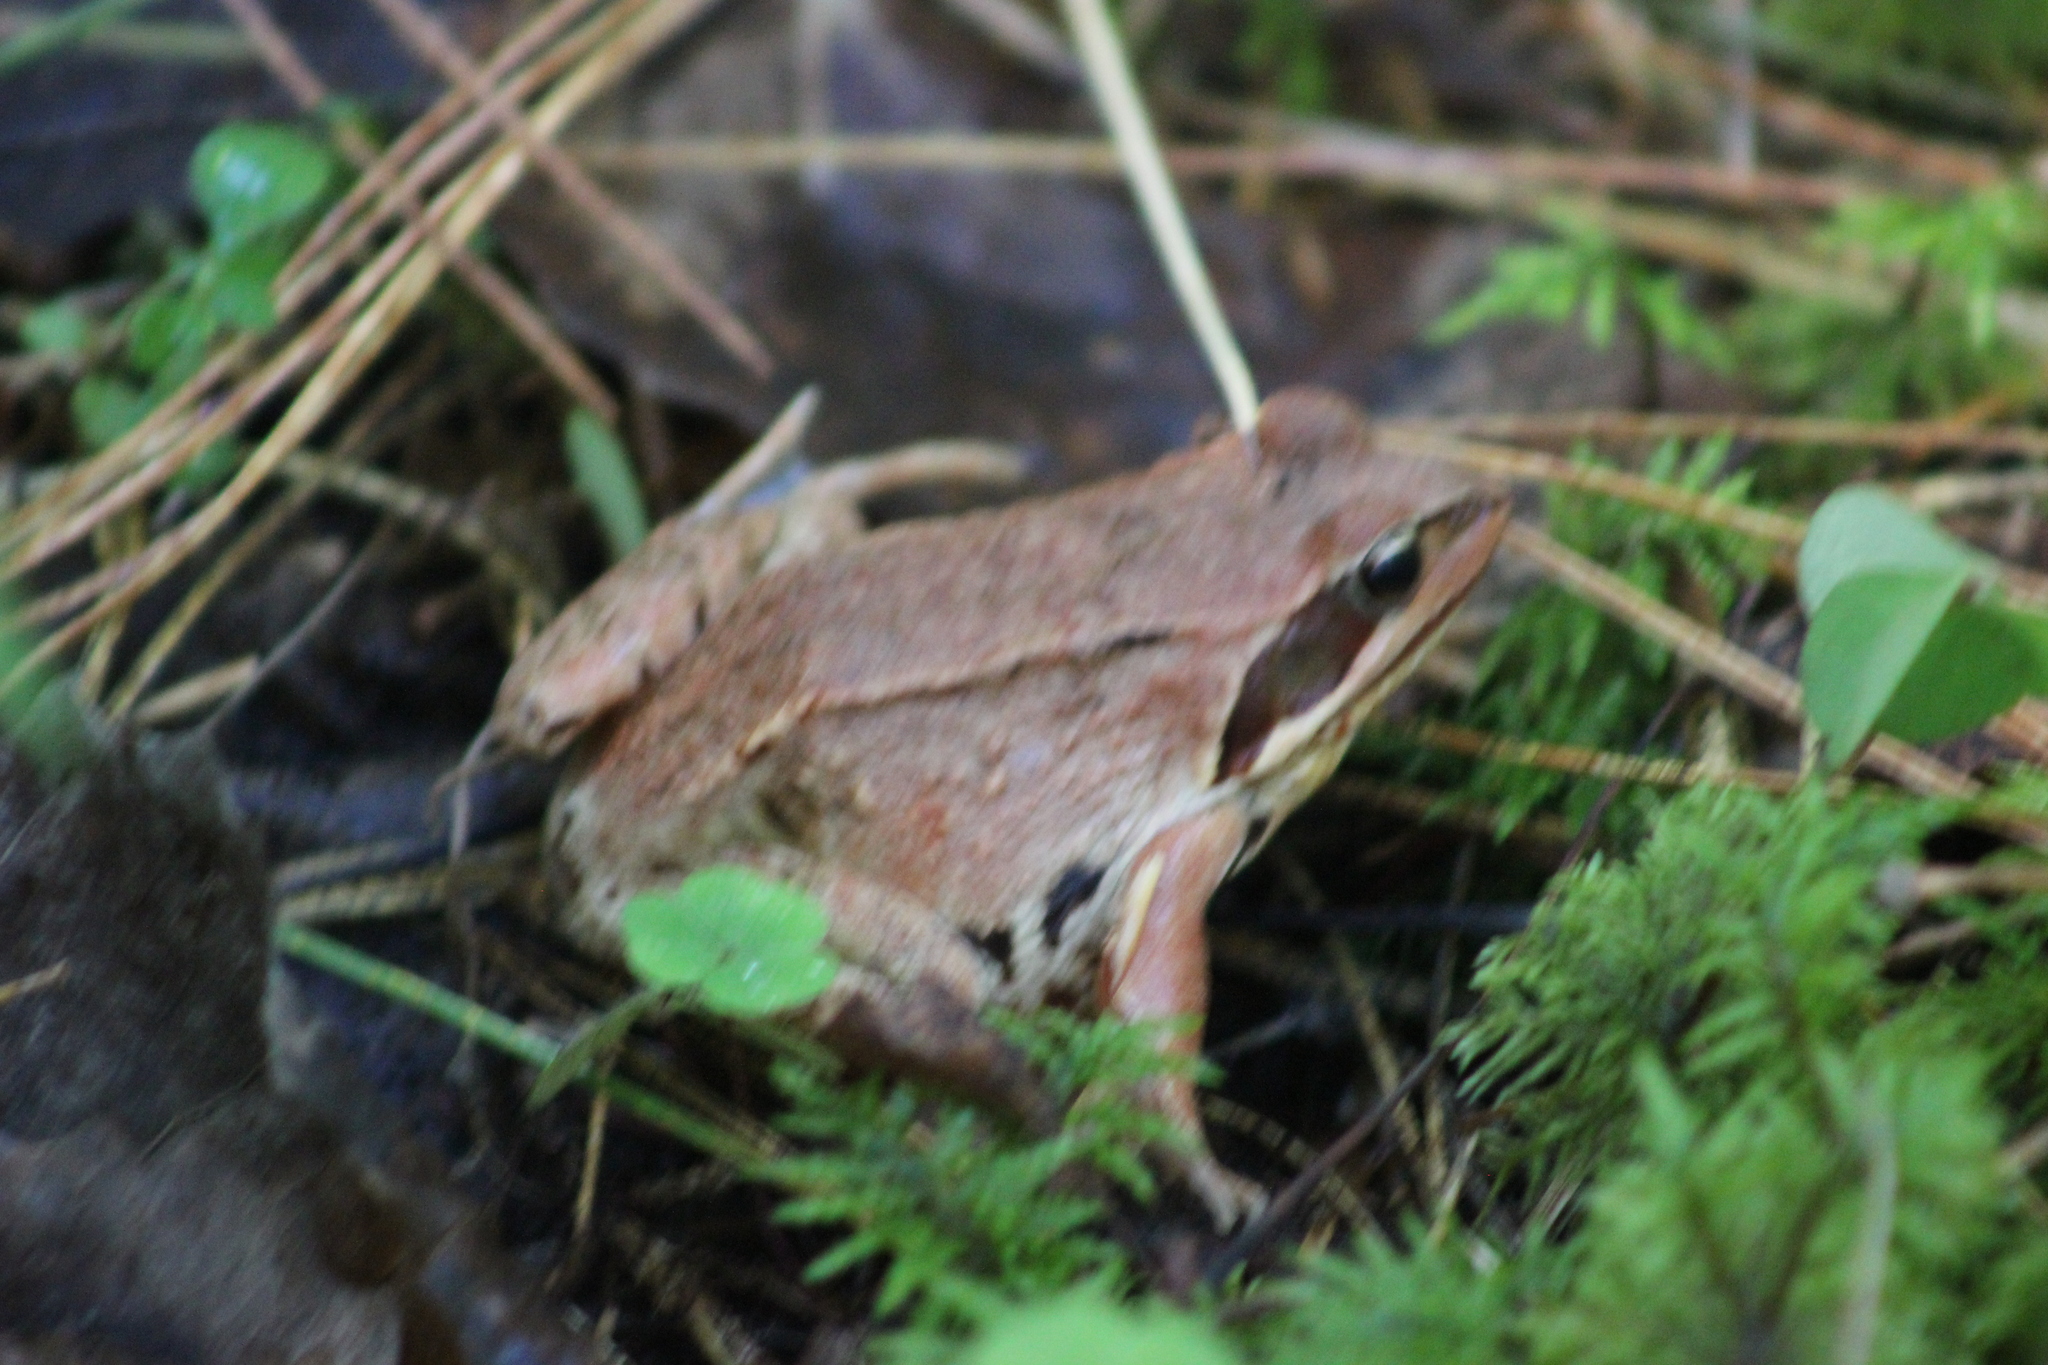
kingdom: Animalia
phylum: Chordata
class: Amphibia
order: Anura
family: Ranidae
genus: Rana
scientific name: Rana arvalis
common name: Moor frog
